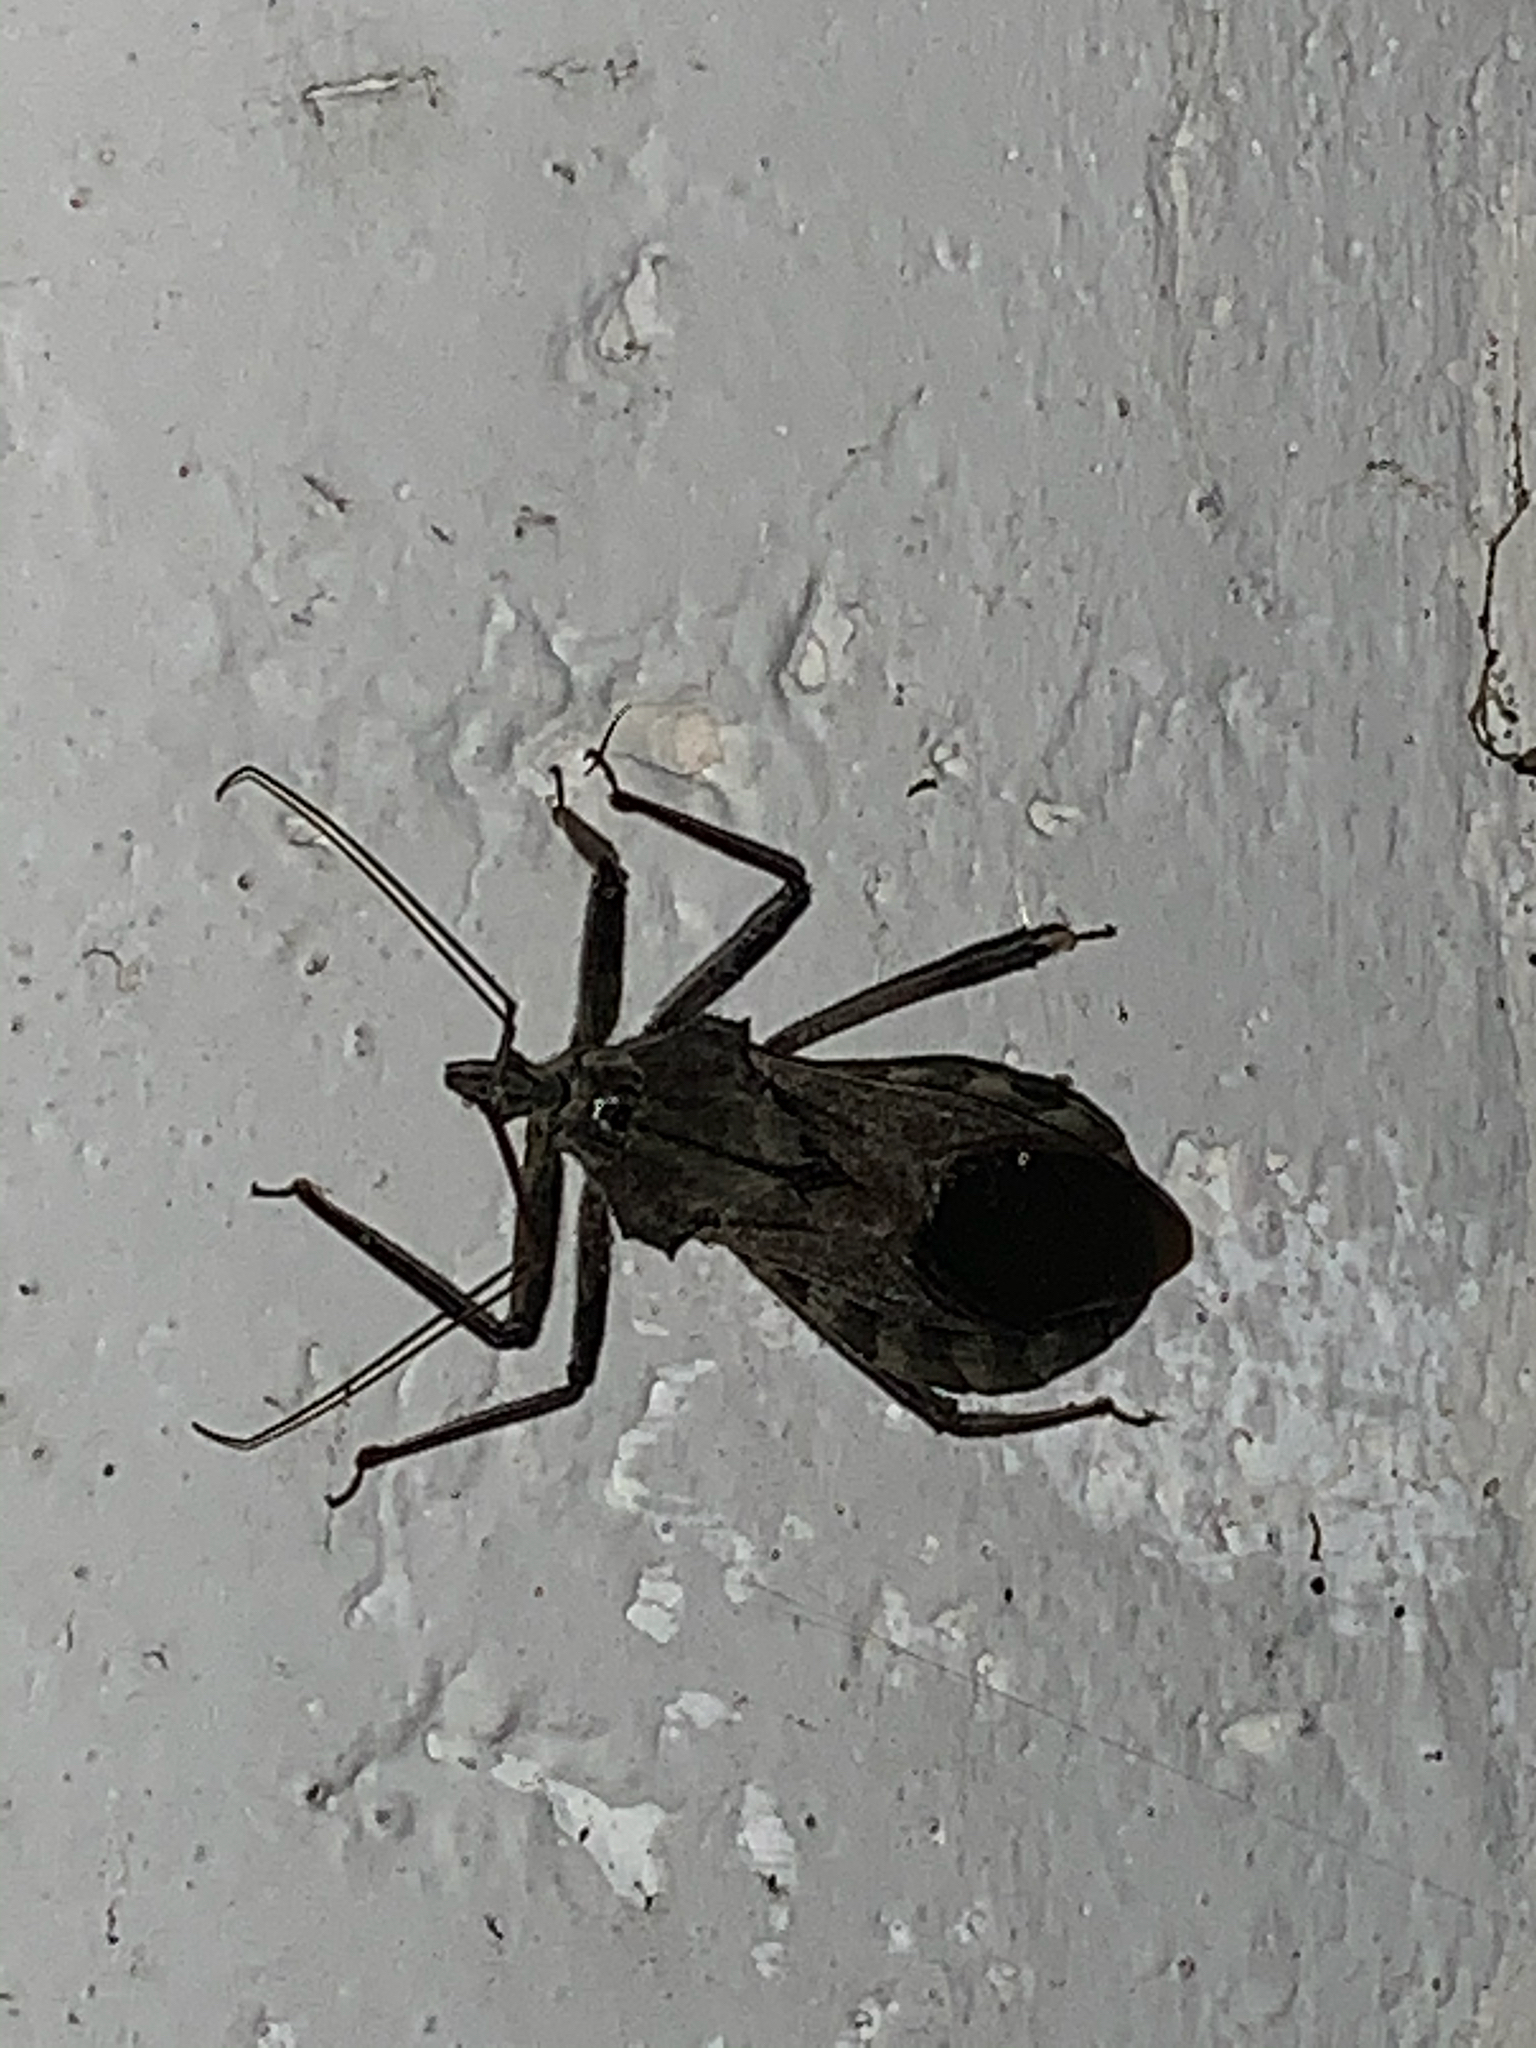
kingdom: Animalia
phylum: Arthropoda
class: Insecta
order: Hemiptera
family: Reduviidae
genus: Arilus
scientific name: Arilus cristatus
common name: North american wheel bug
